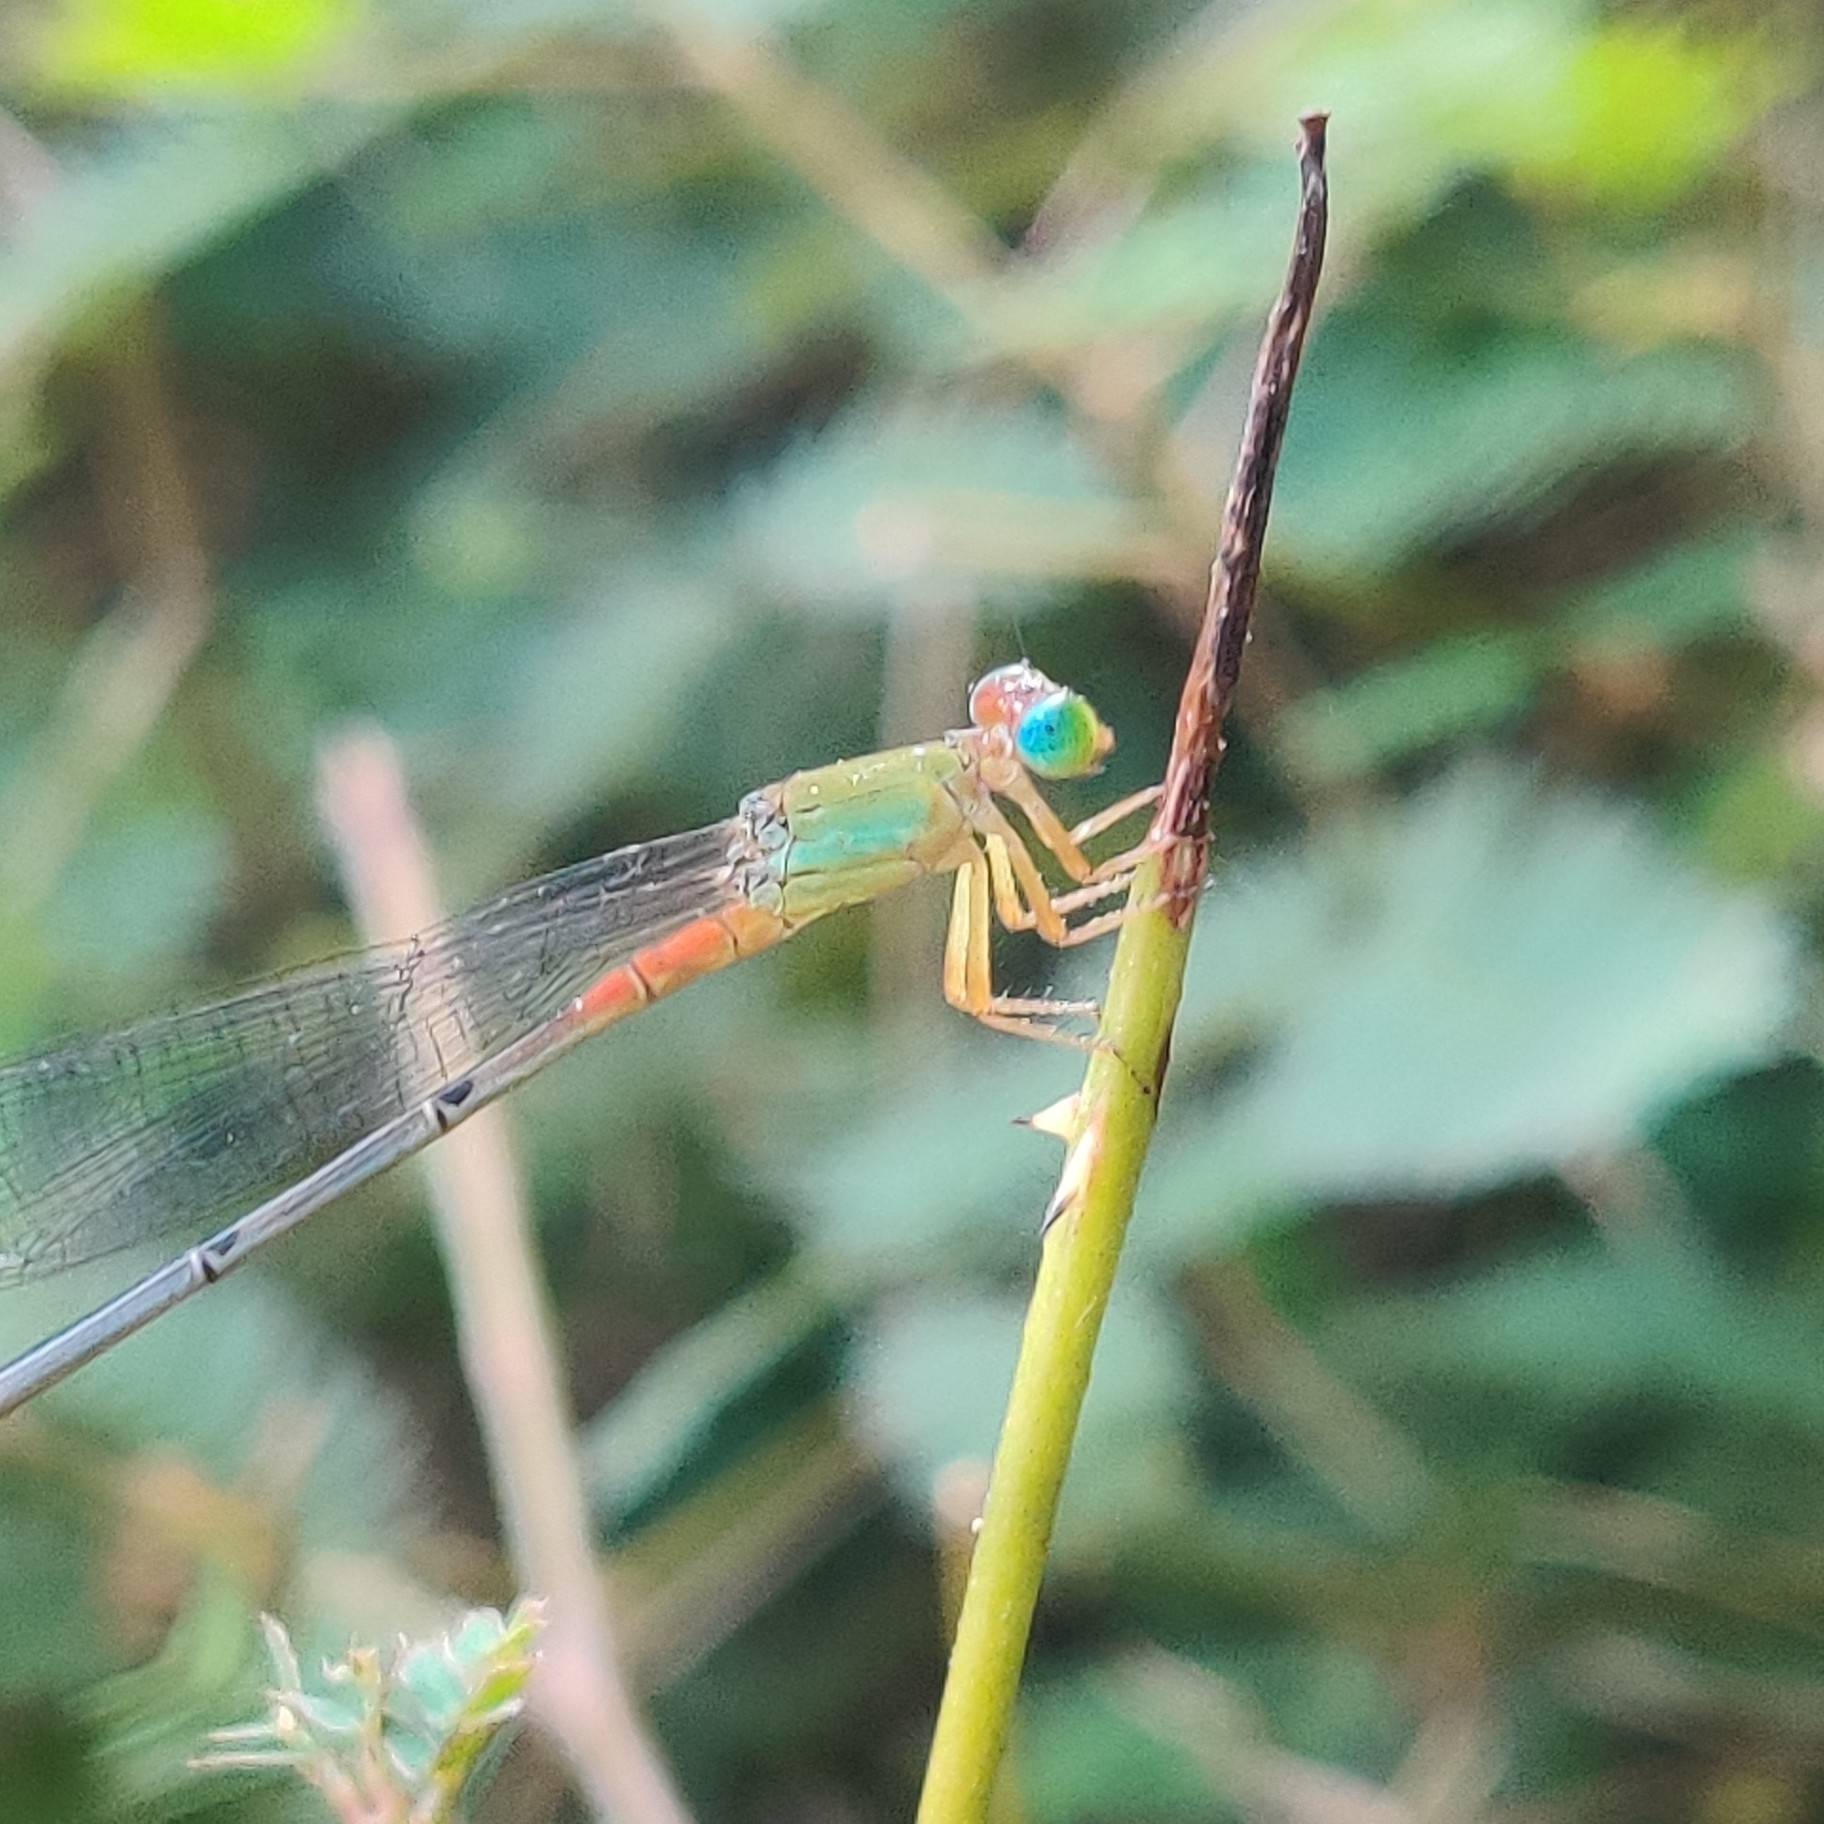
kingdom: Animalia
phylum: Arthropoda
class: Insecta
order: Odonata
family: Coenagrionidae
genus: Ceriagrion
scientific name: Ceriagrion cerinorubellum
